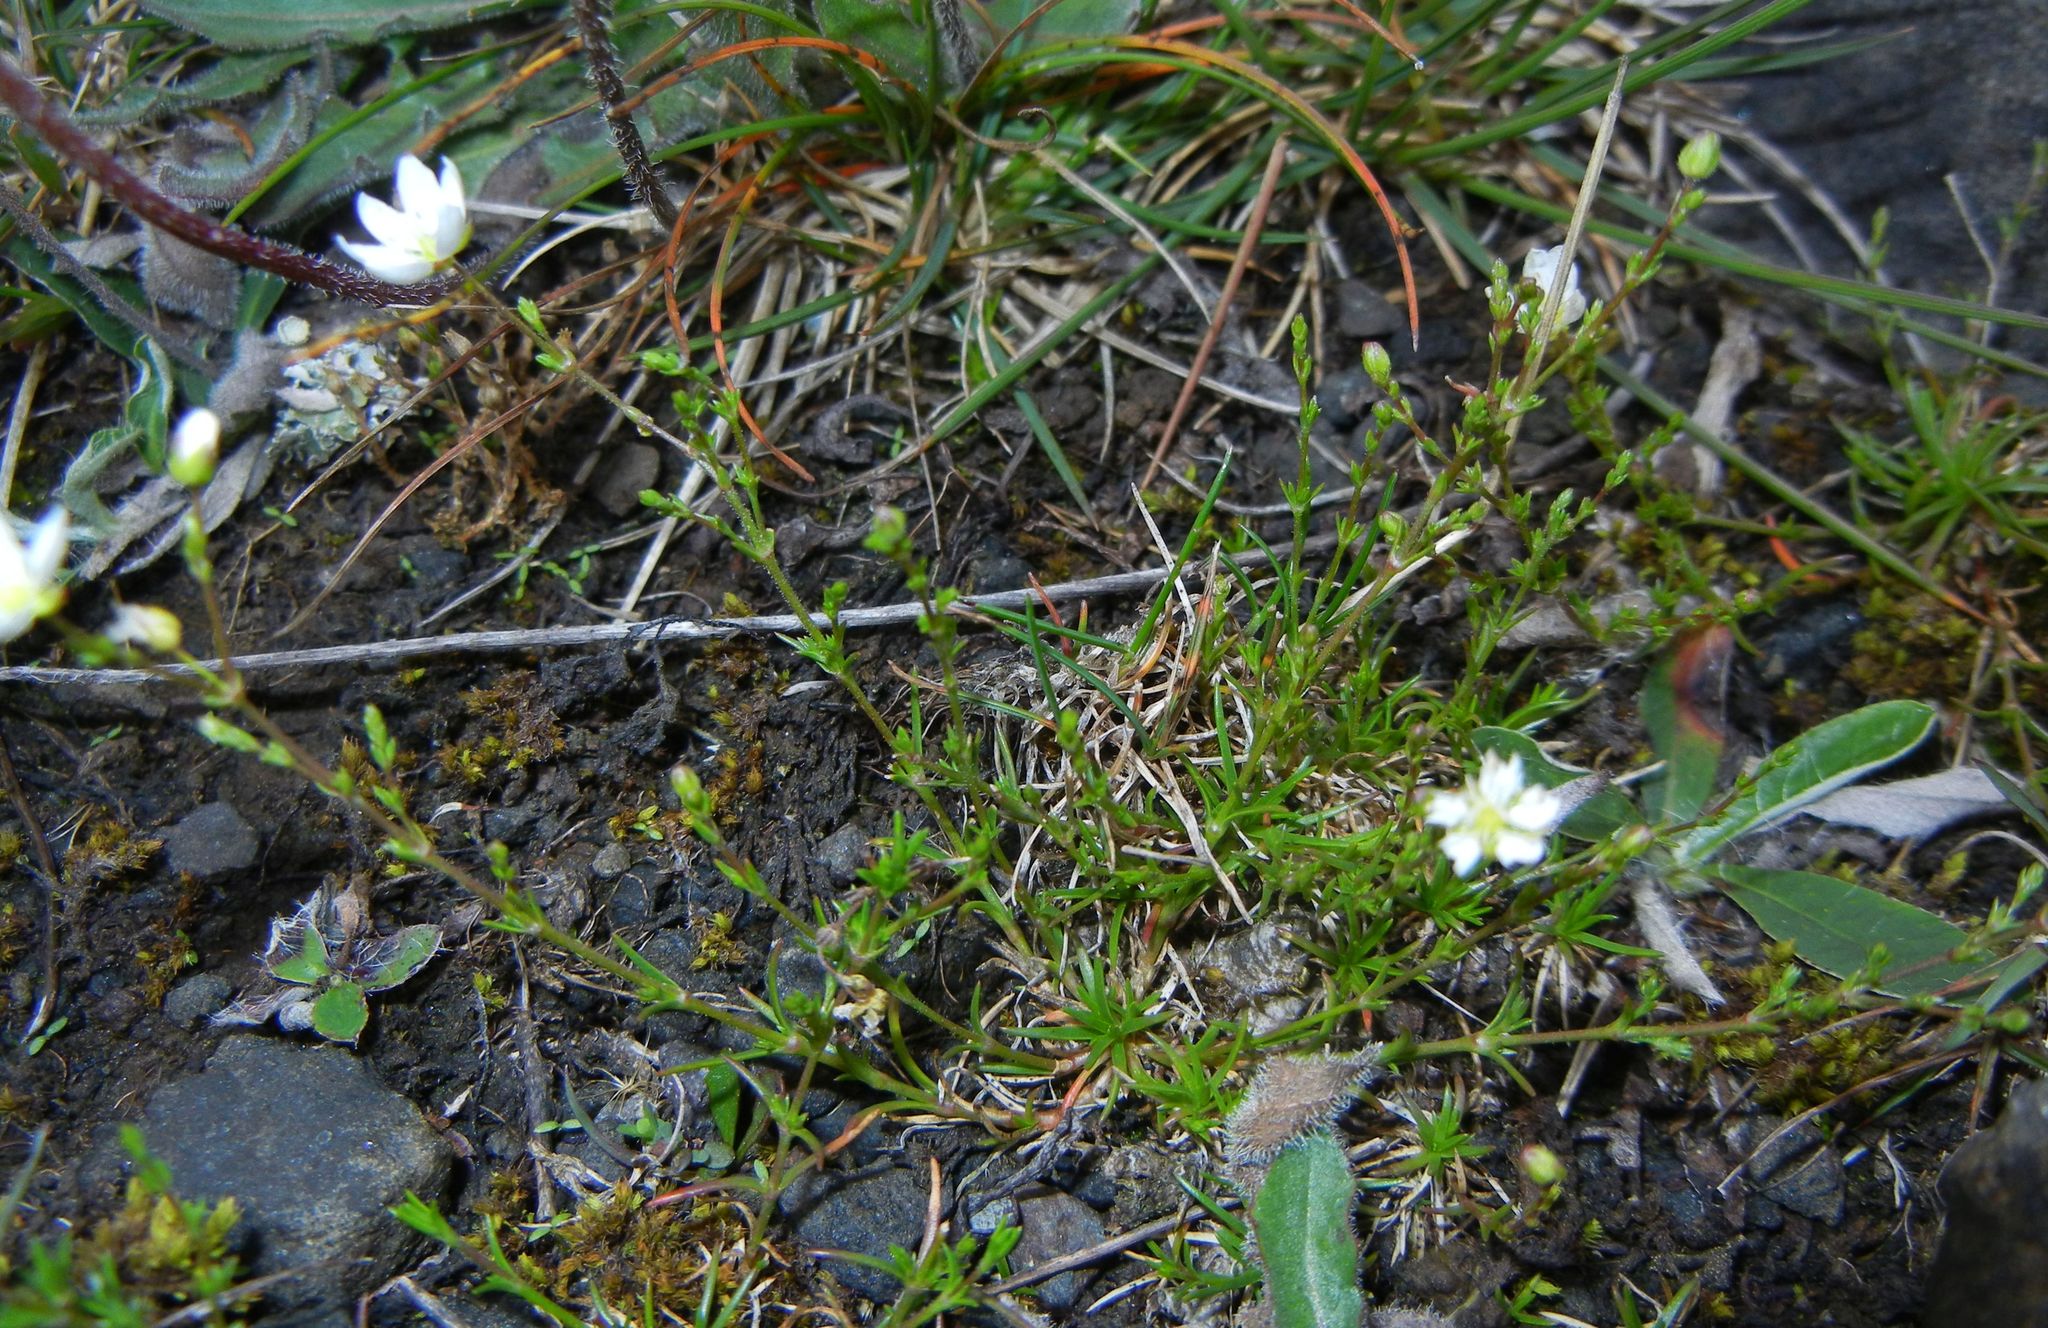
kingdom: Plantae
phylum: Tracheophyta
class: Magnoliopsida
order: Caryophyllales
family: Caryophyllaceae
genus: Sagina
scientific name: Sagina nodosa
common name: Knotted pearlwort
